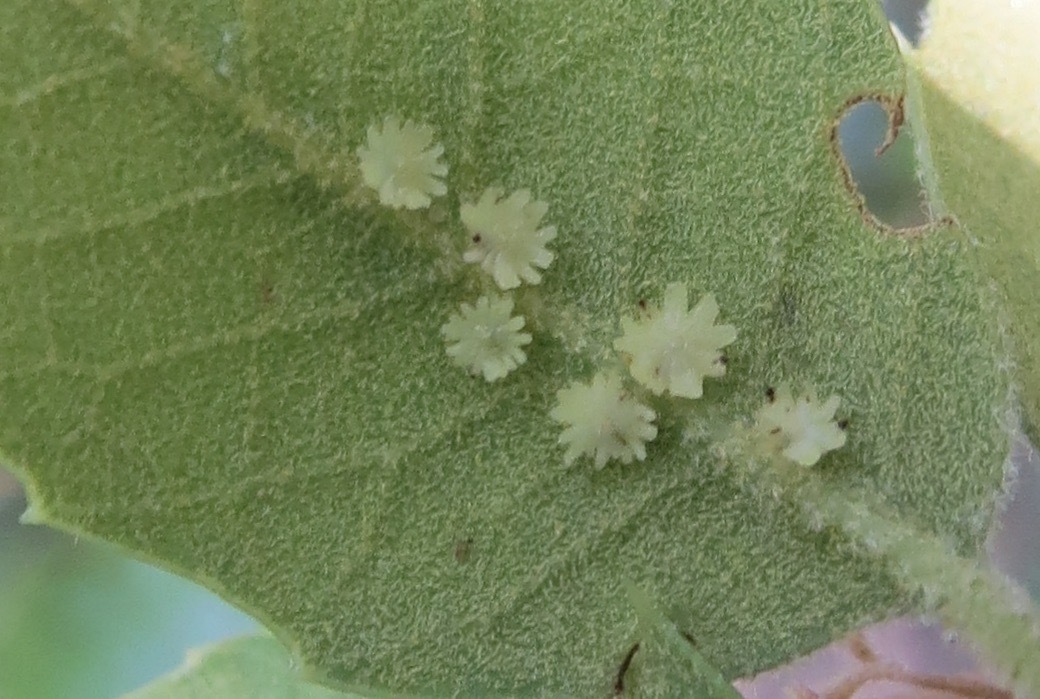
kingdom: Animalia
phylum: Arthropoda
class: Insecta
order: Hymenoptera
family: Cynipidae
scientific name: Cynipidae
